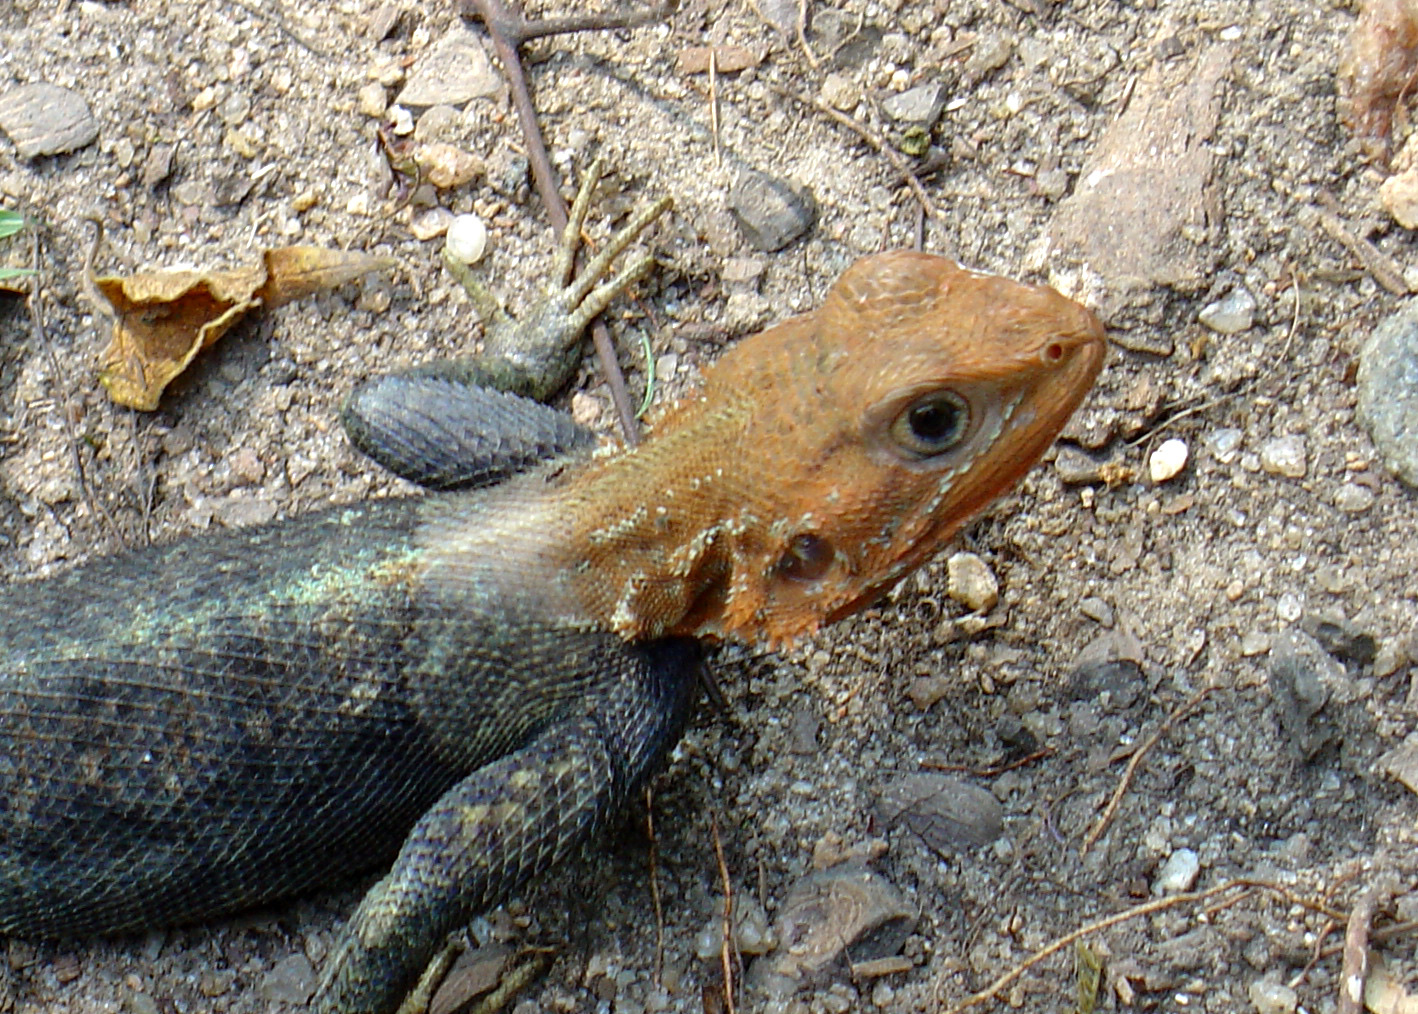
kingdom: Animalia
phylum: Chordata
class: Squamata
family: Agamidae
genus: Agama
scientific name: Agama picticauda
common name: Red-headed agama
